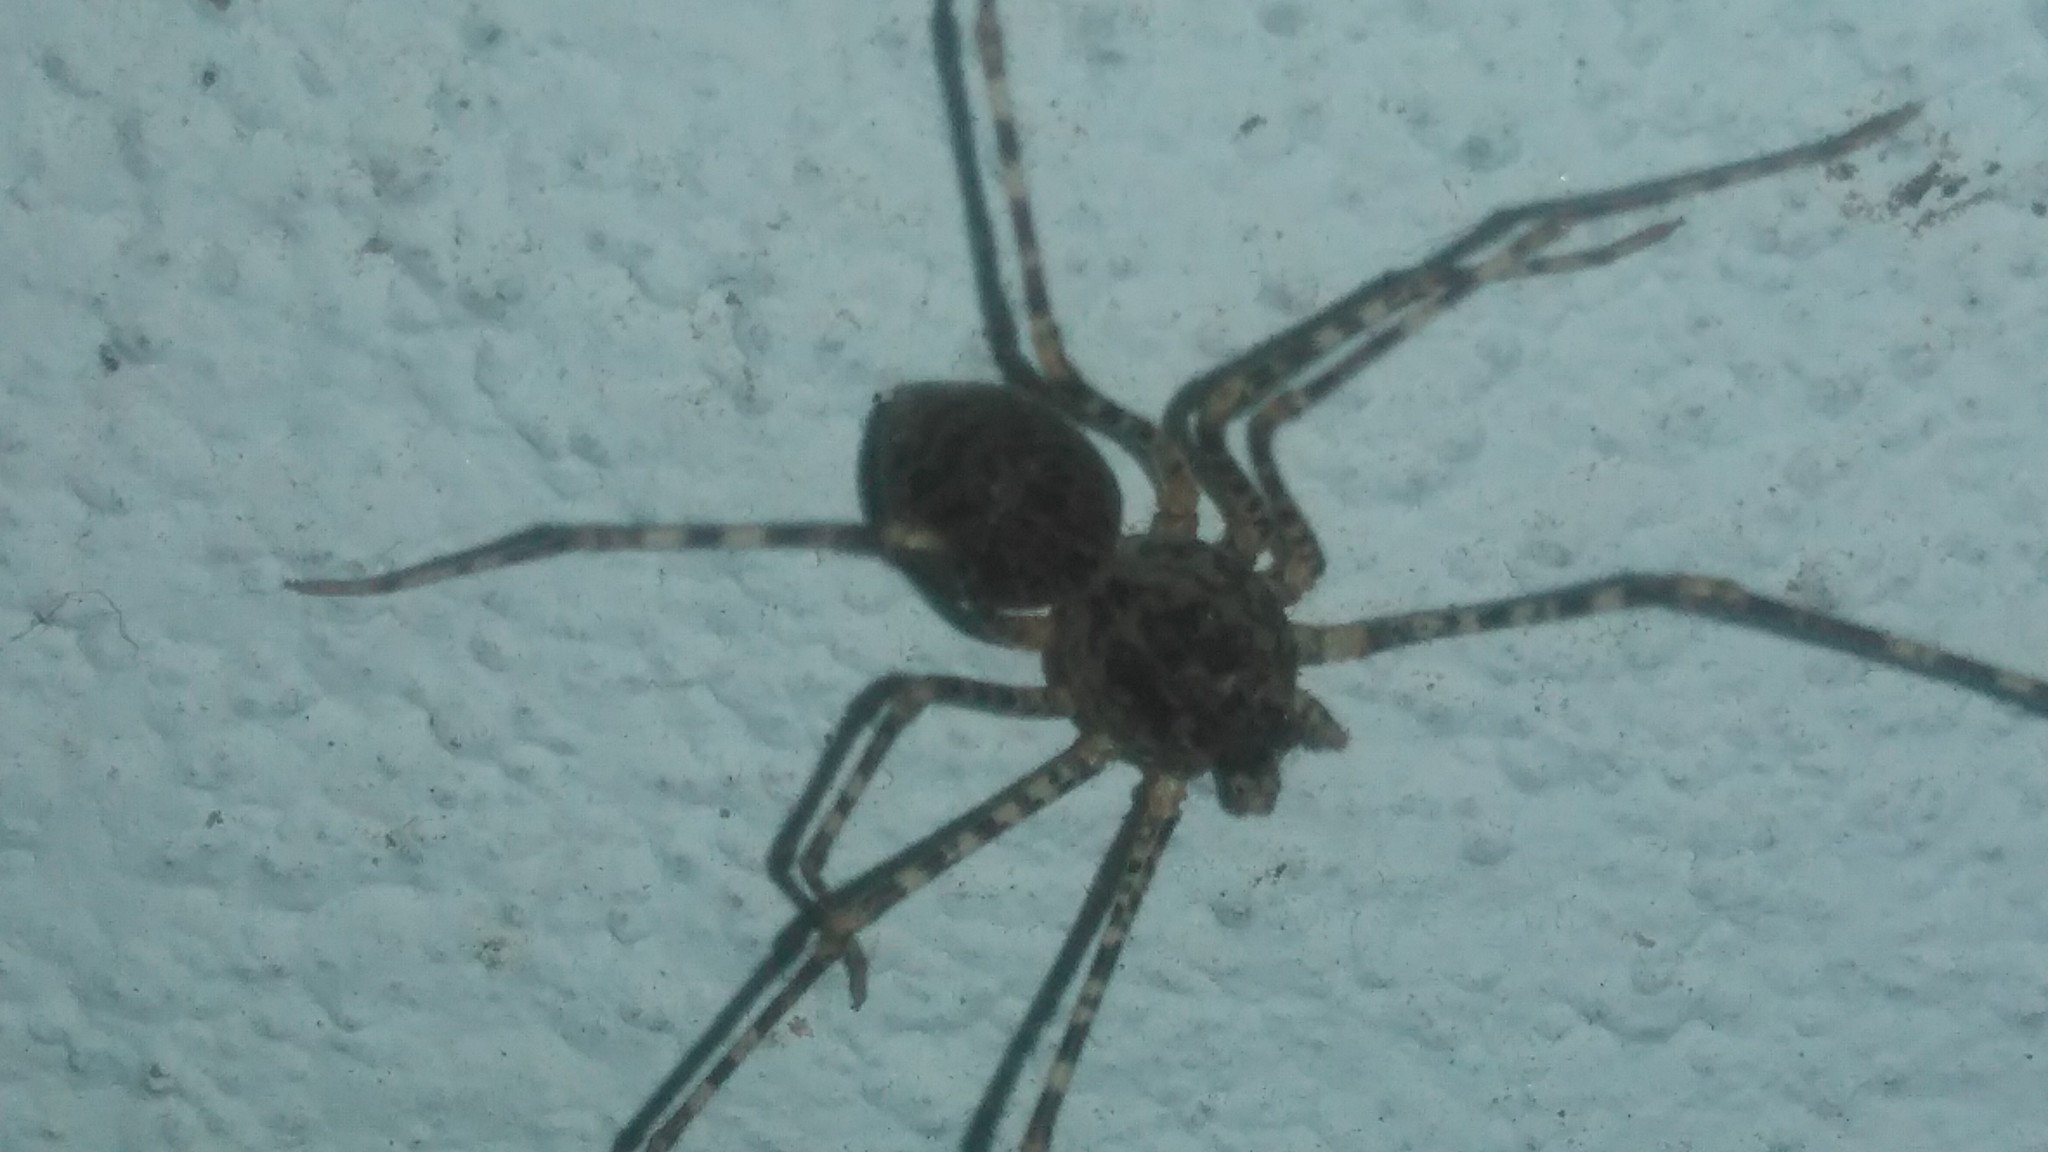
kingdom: Animalia
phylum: Arthropoda
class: Arachnida
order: Araneae
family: Scytodidae
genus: Scytodes
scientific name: Scytodes globula
